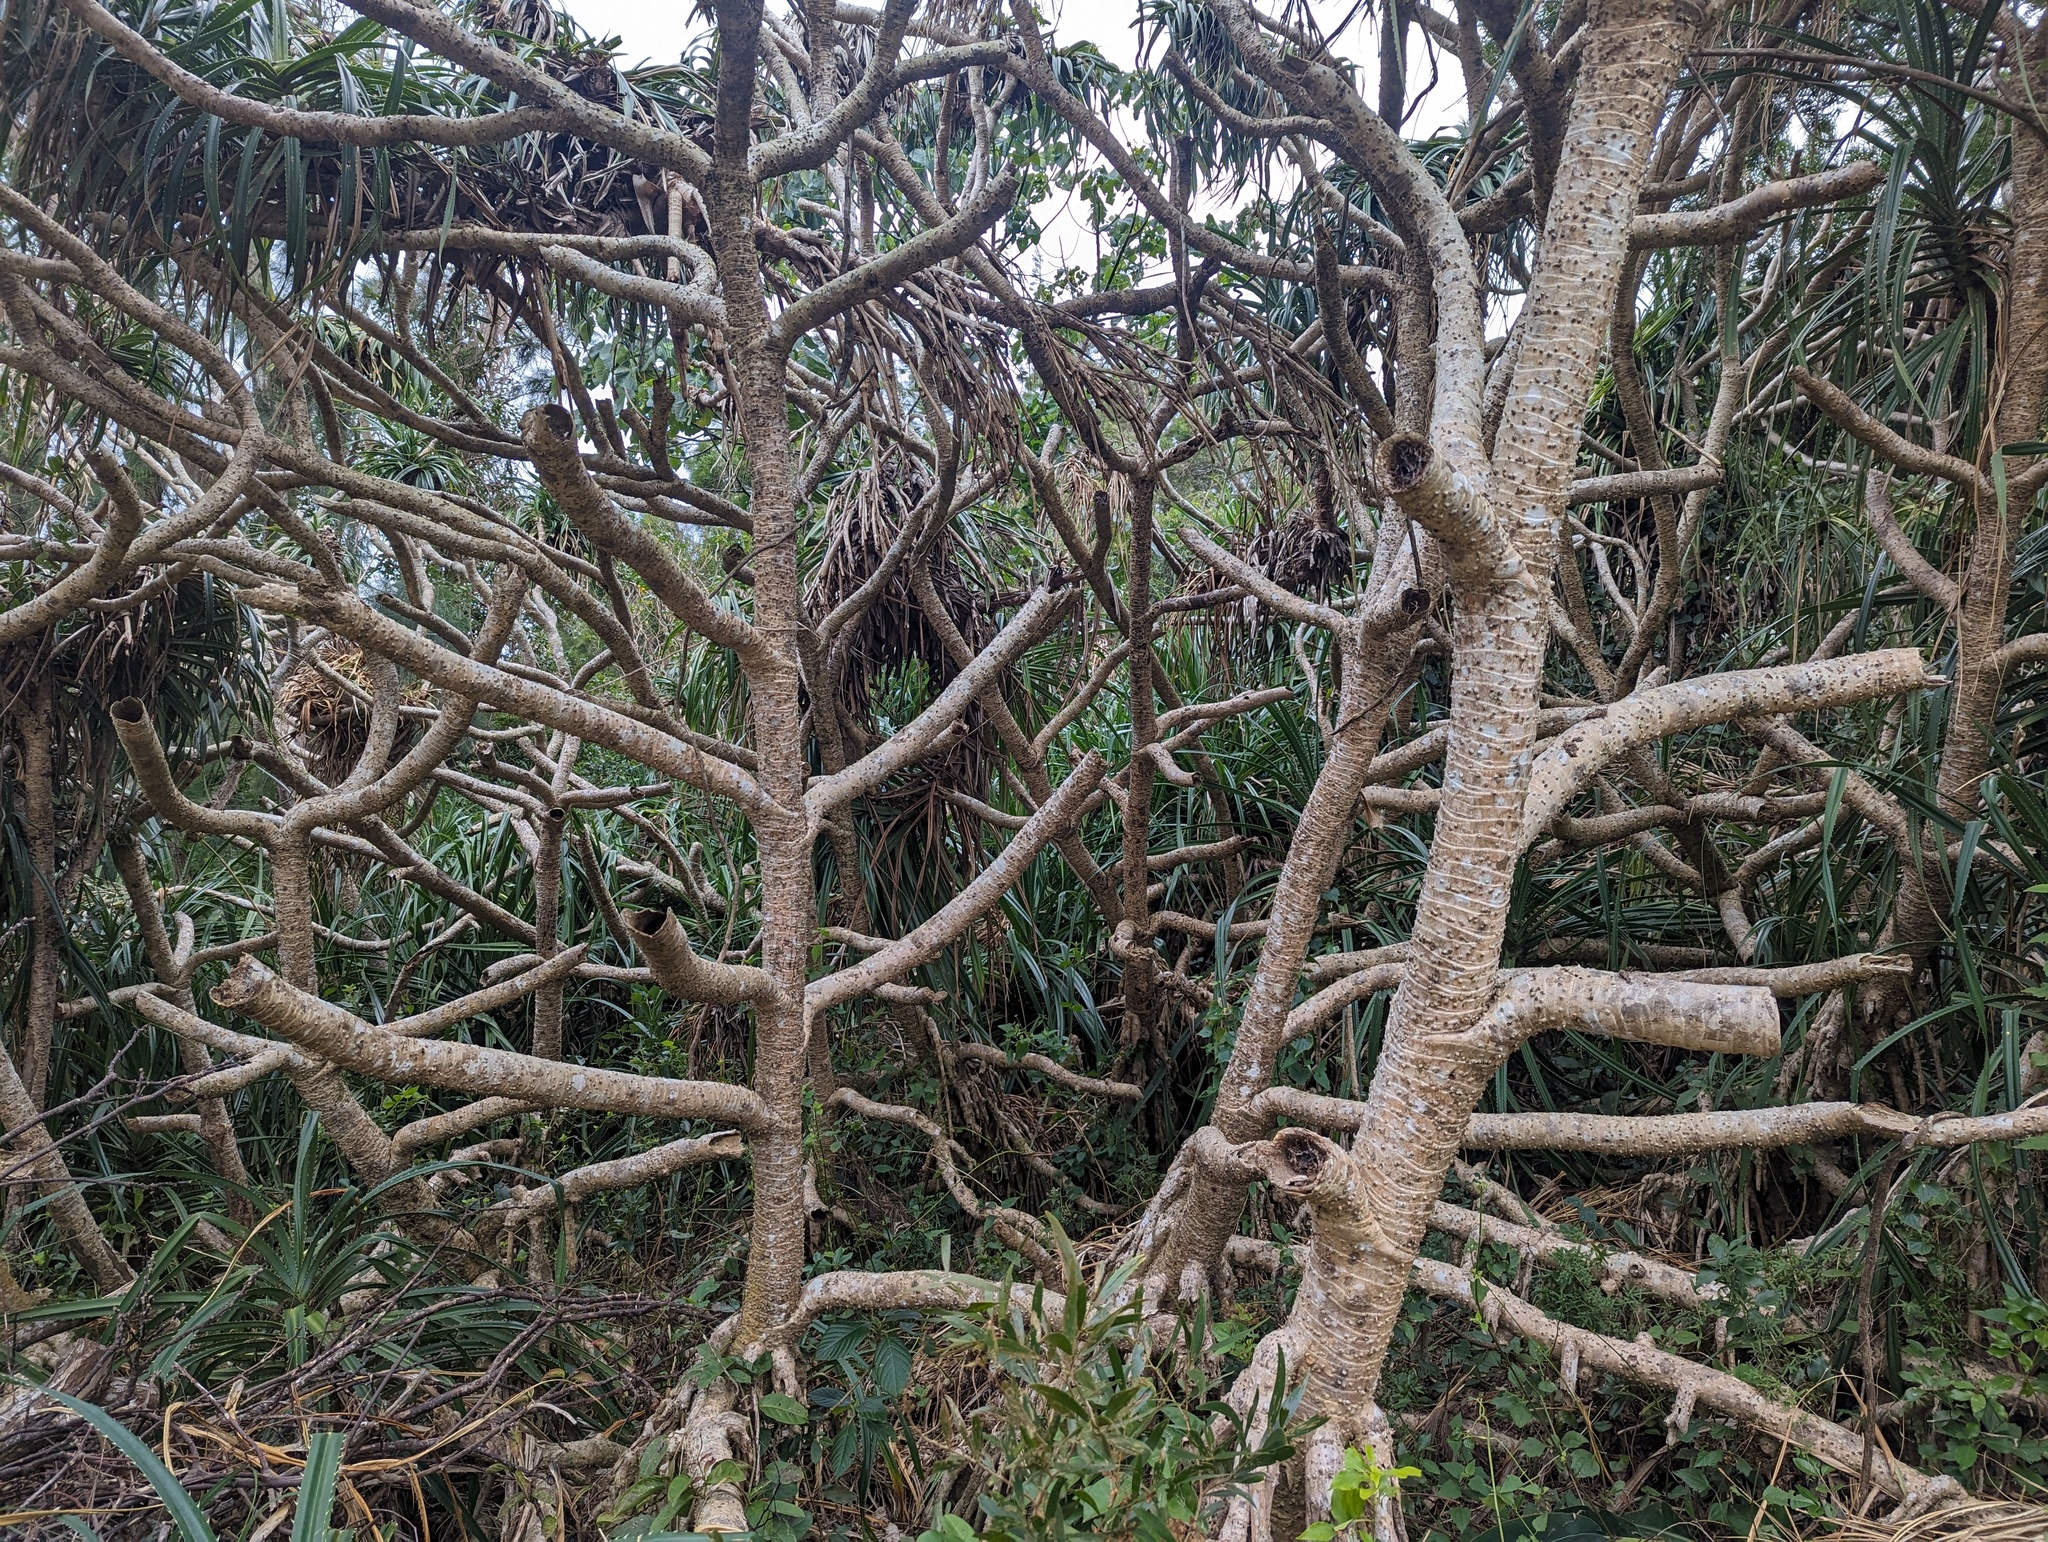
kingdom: Plantae
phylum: Tracheophyta
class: Liliopsida
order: Pandanales
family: Pandanaceae
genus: Pandanus
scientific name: Pandanus odorifer
